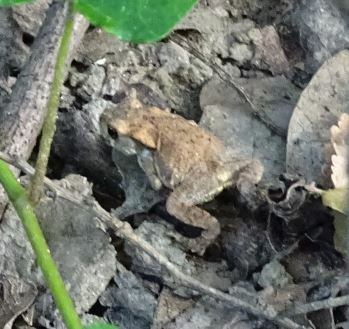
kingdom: Animalia
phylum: Chordata
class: Amphibia
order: Anura
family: Bufonidae
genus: Bufo
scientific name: Bufo spinosus
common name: Western common toad
